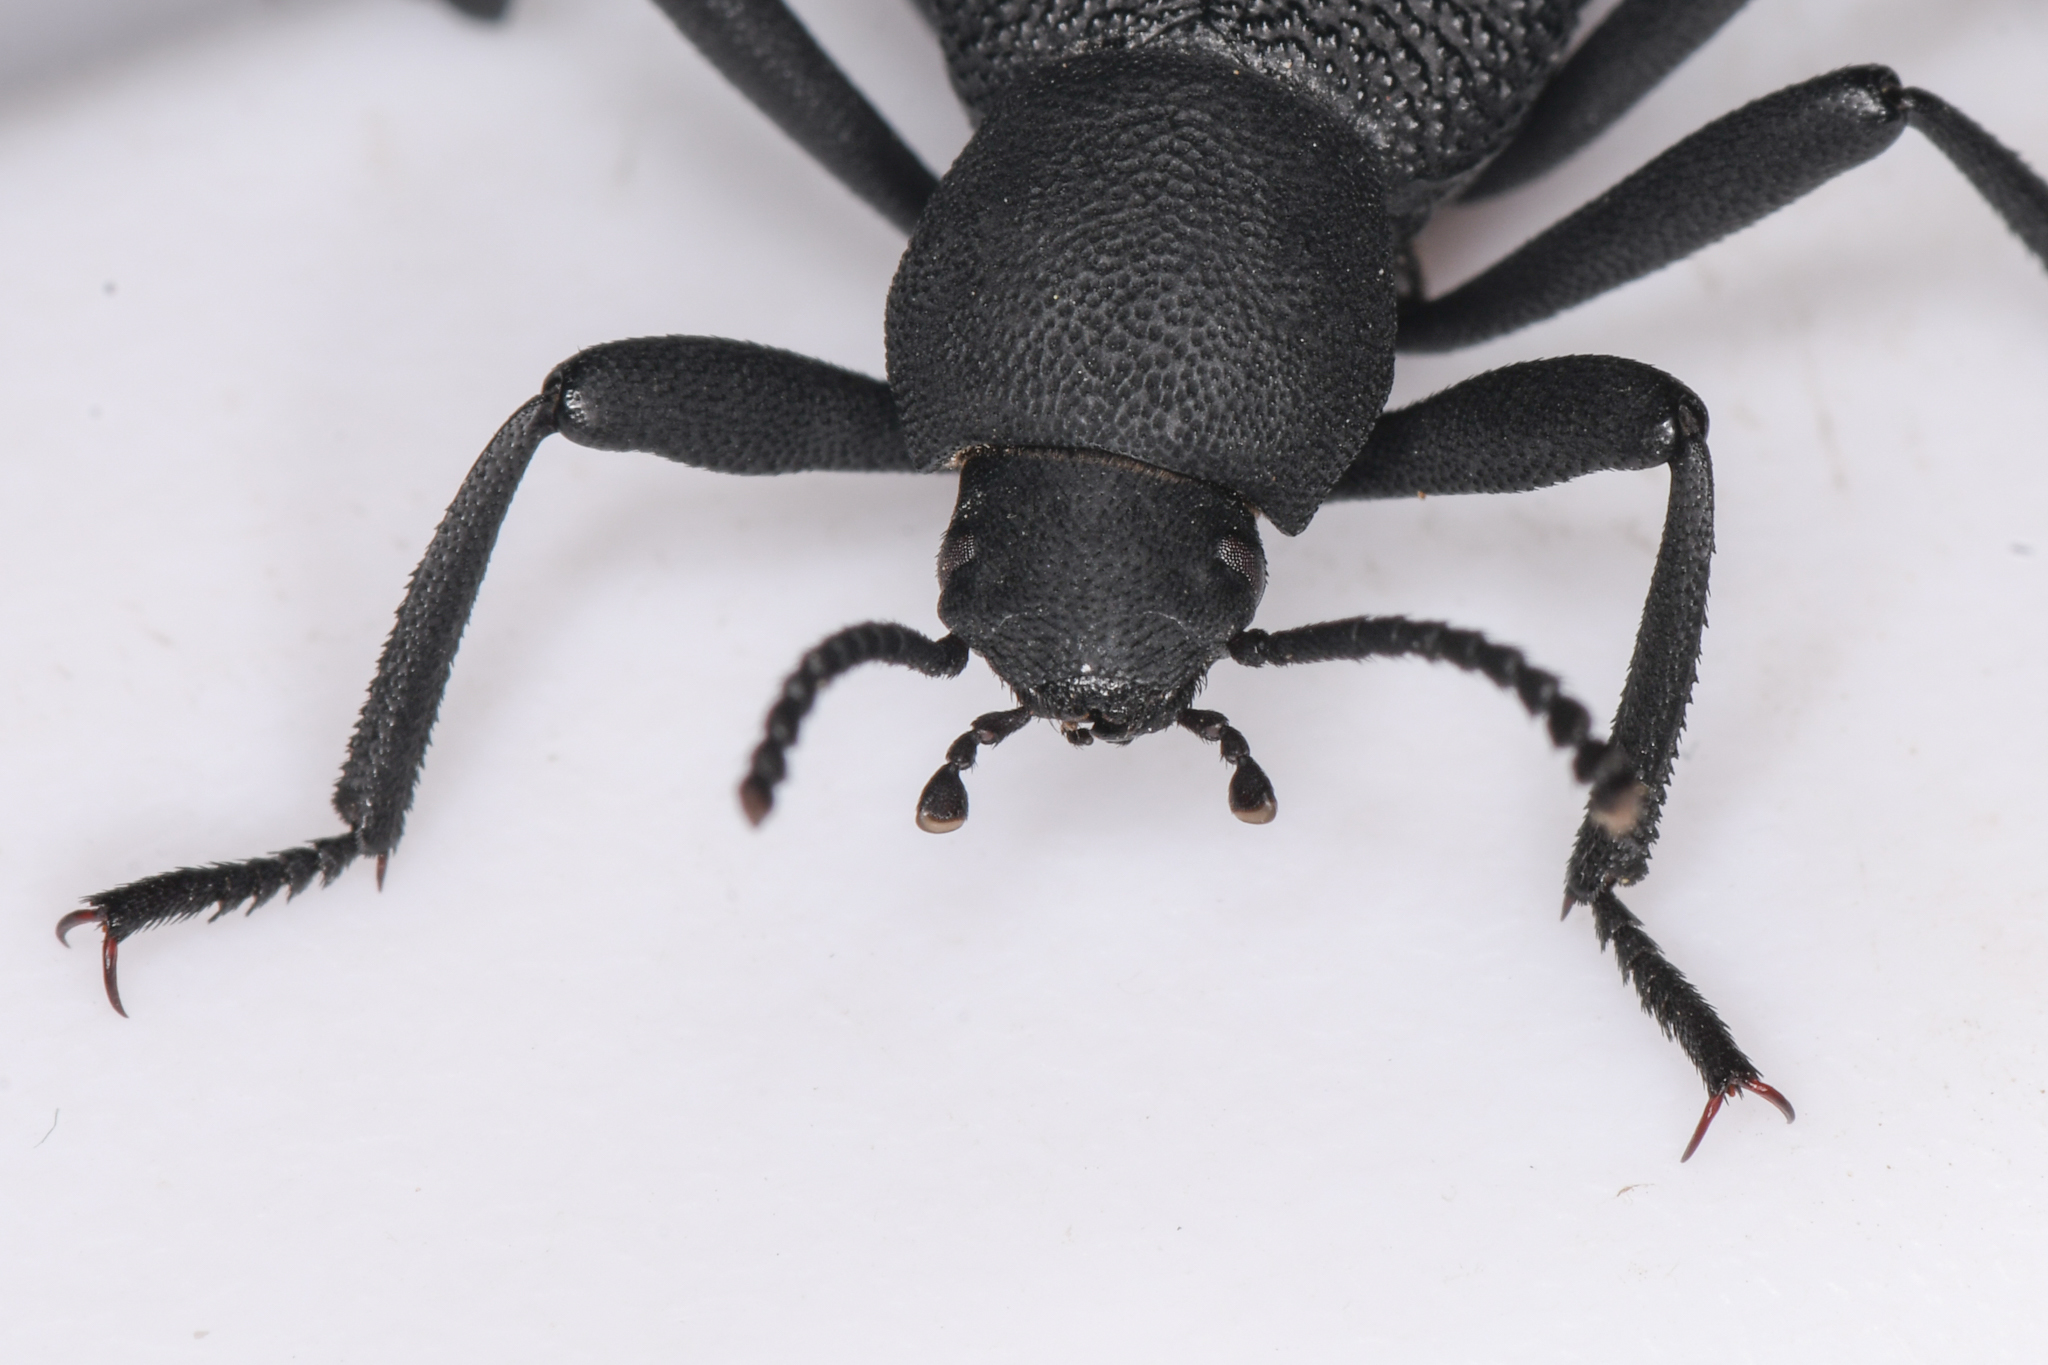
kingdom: Animalia
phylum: Arthropoda
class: Insecta
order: Coleoptera
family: Tenebrionidae
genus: Eleodes
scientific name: Eleodes granosa
